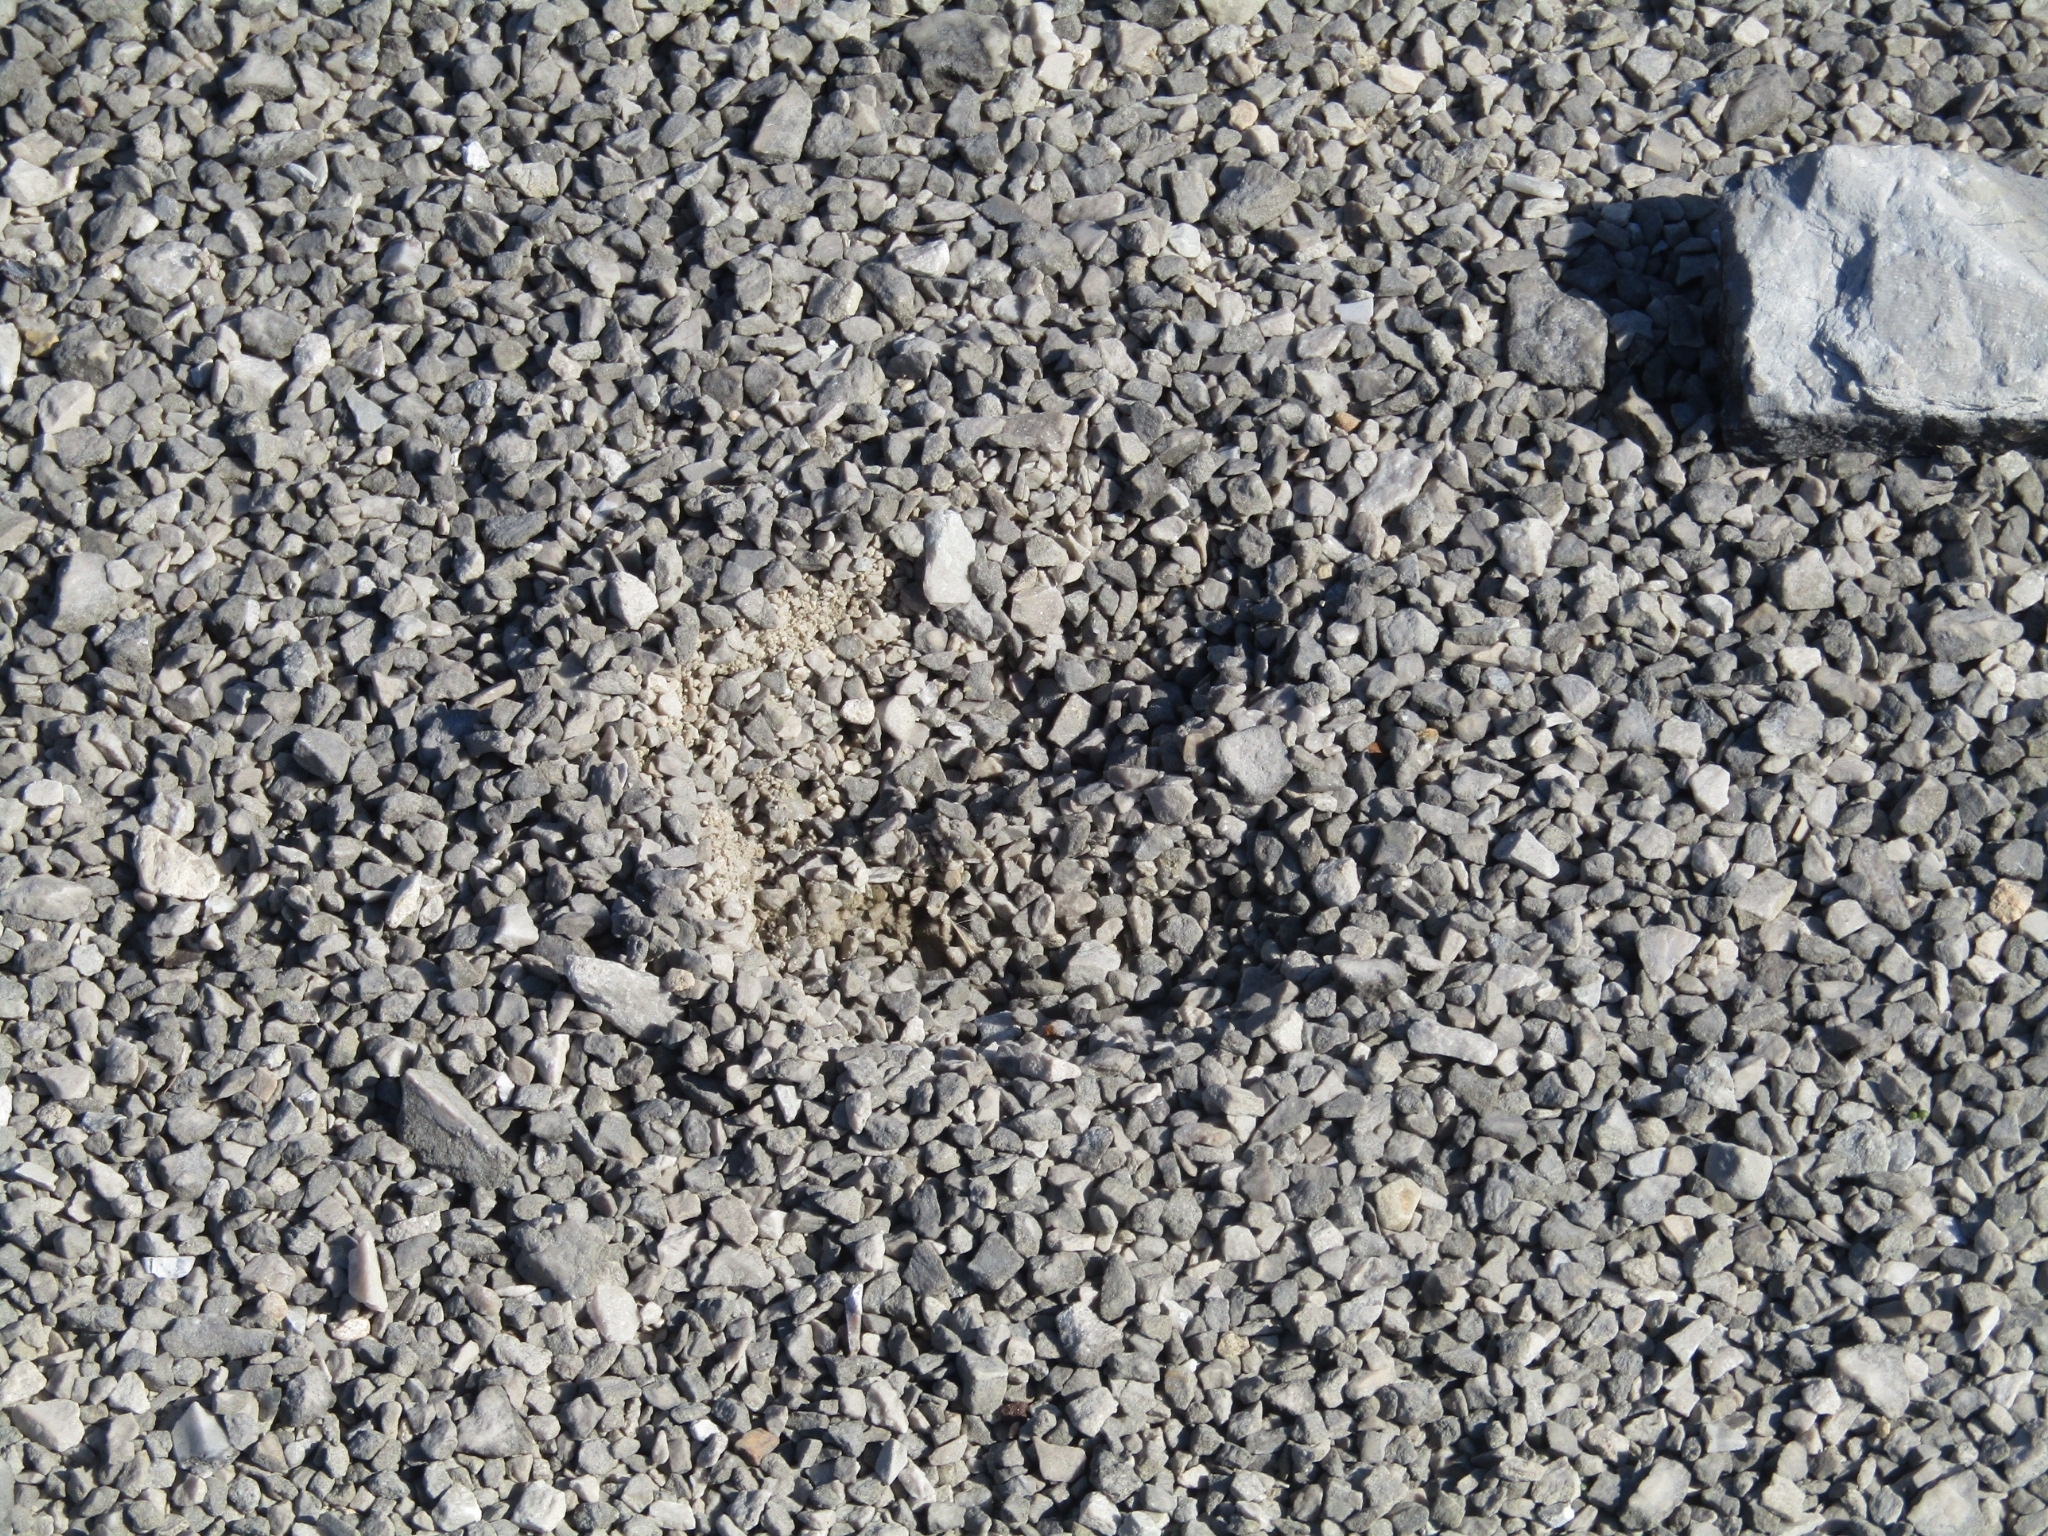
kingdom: Animalia
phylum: Chordata
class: Mammalia
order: Artiodactyla
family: Cervidae
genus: Odocoileus
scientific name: Odocoileus virginianus
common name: White-tailed deer
